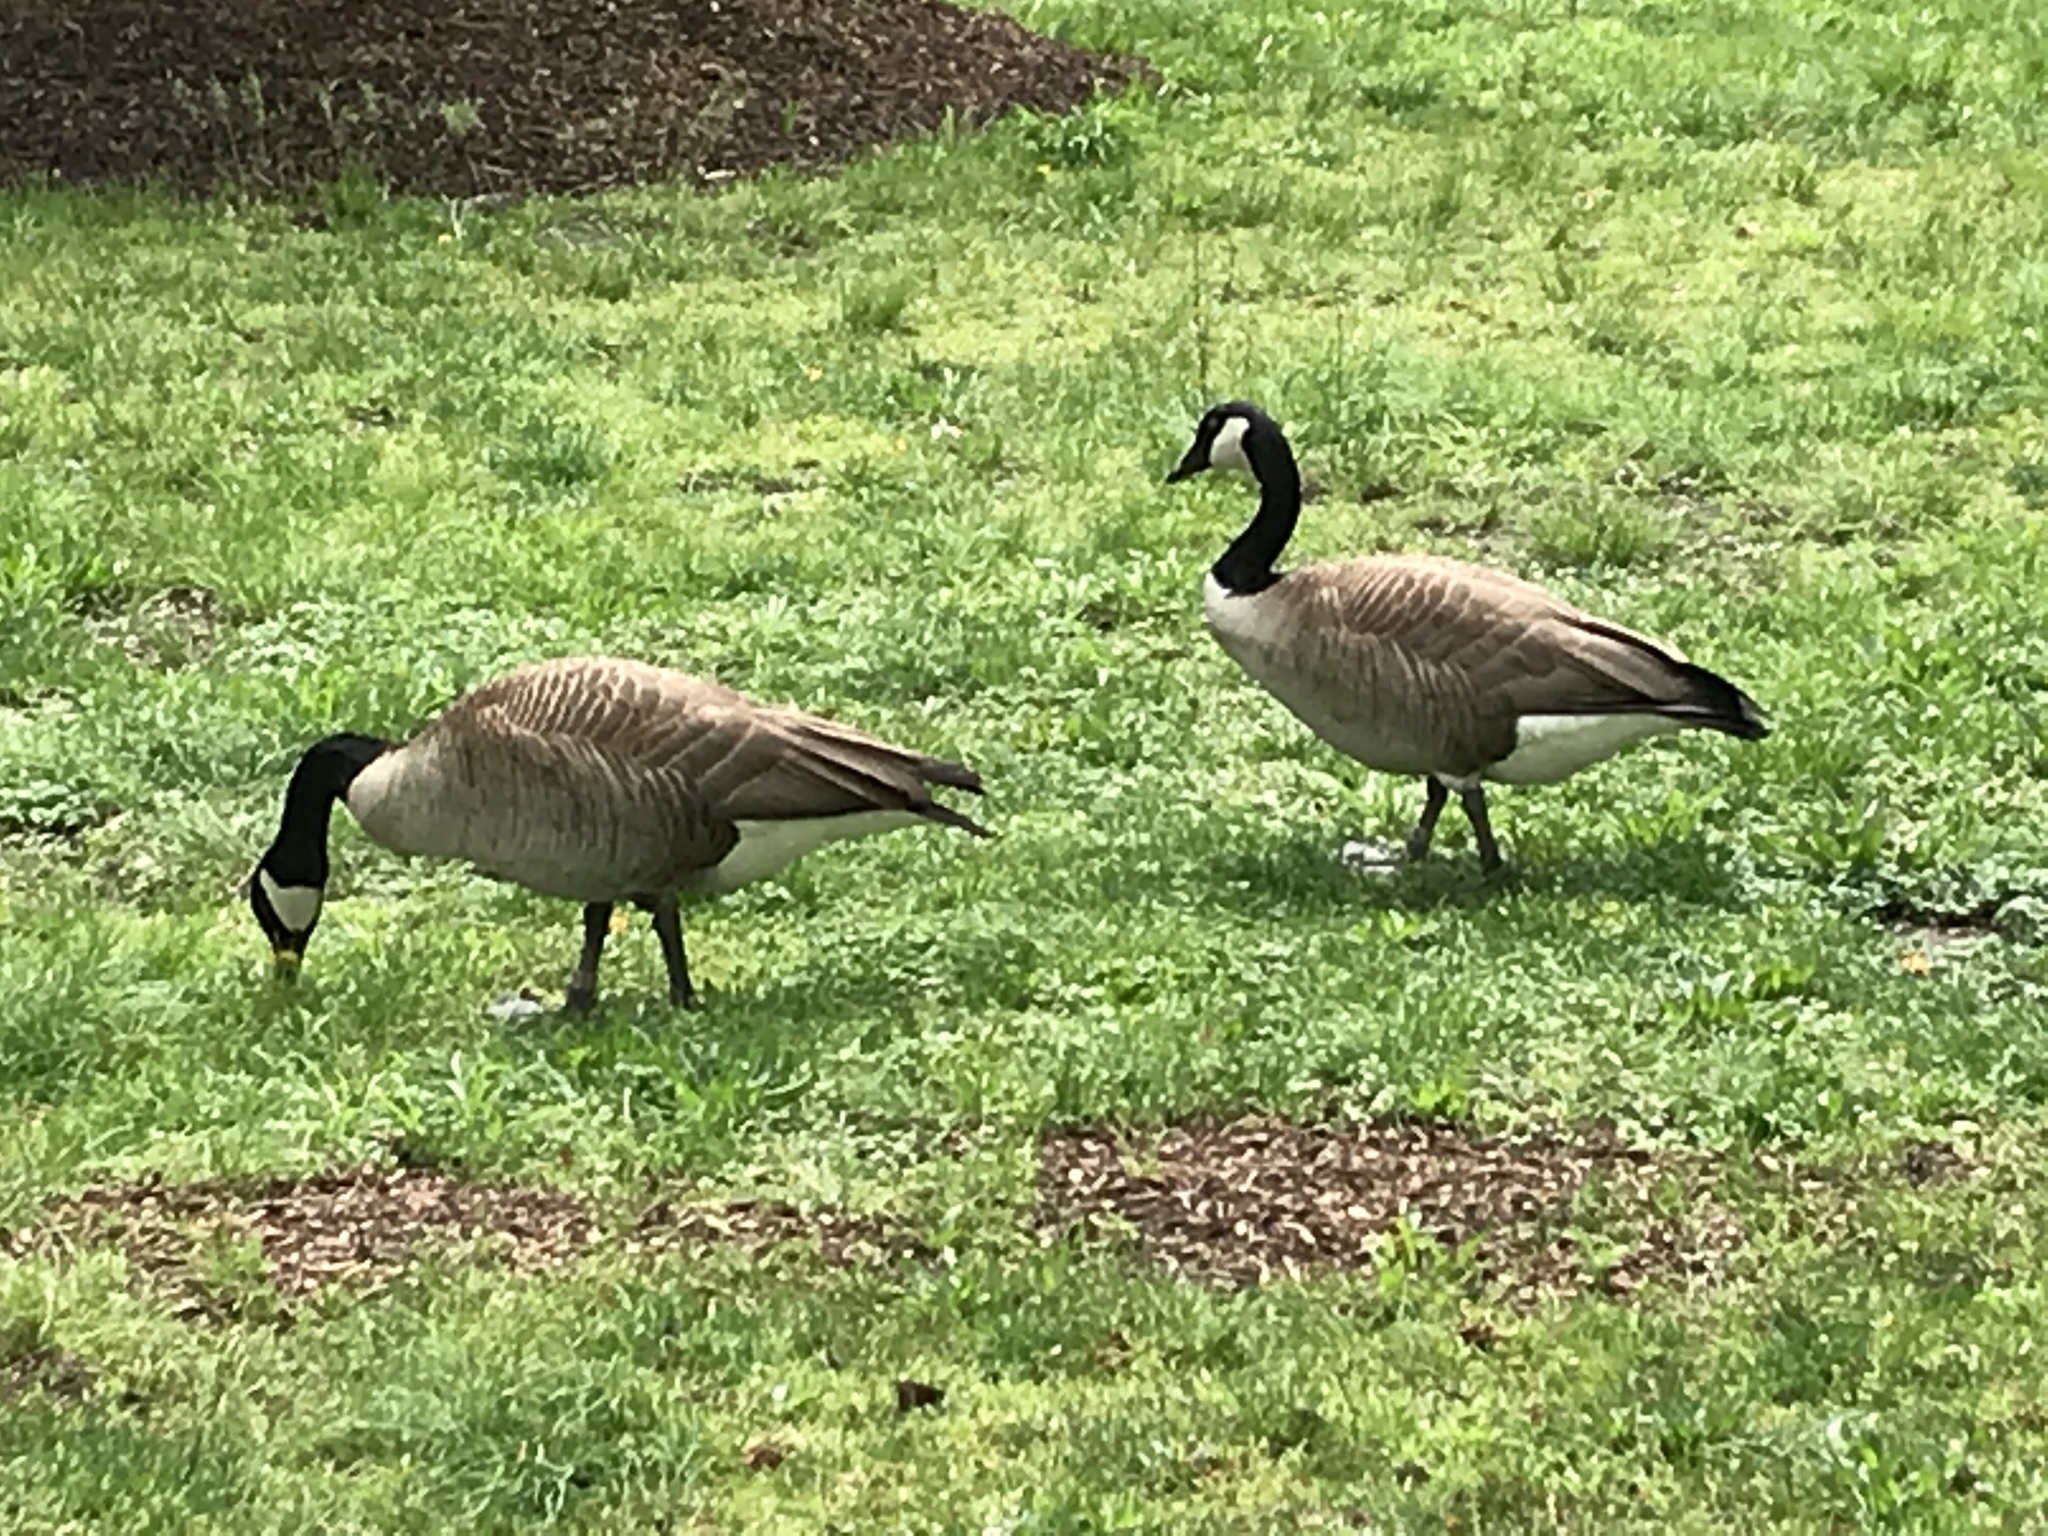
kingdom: Animalia
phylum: Chordata
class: Aves
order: Anseriformes
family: Anatidae
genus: Branta
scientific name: Branta canadensis
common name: Canada goose
